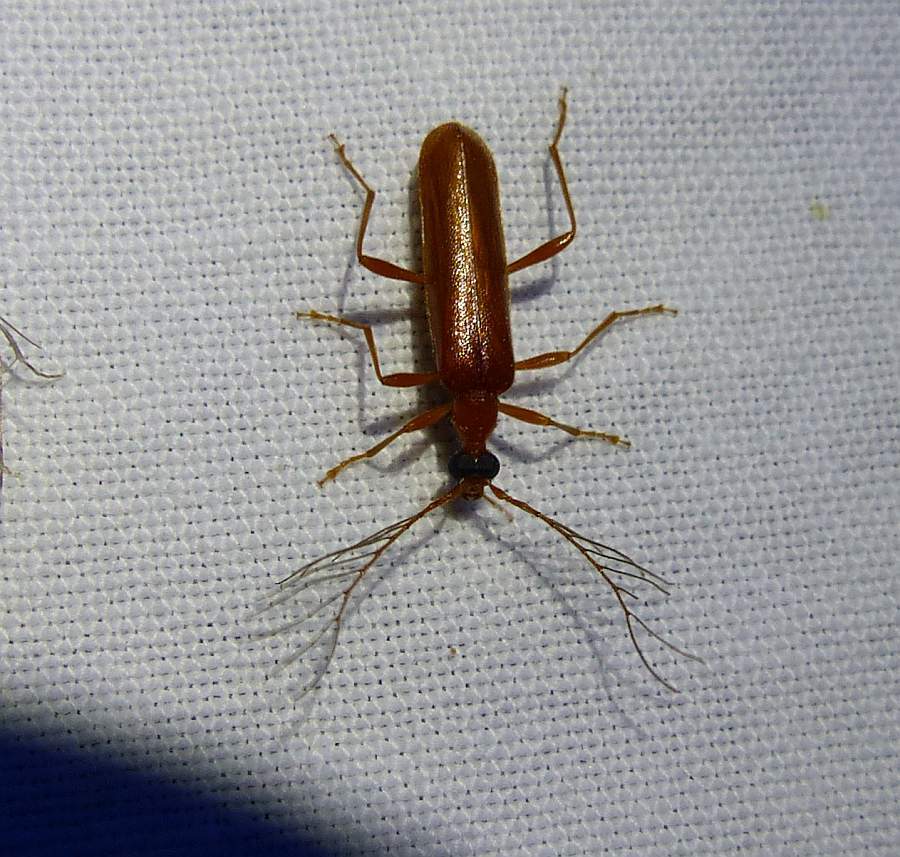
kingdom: Animalia
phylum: Arthropoda
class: Insecta
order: Coleoptera
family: Pyrochroidae
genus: Dendroides
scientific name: Dendroides concolor
